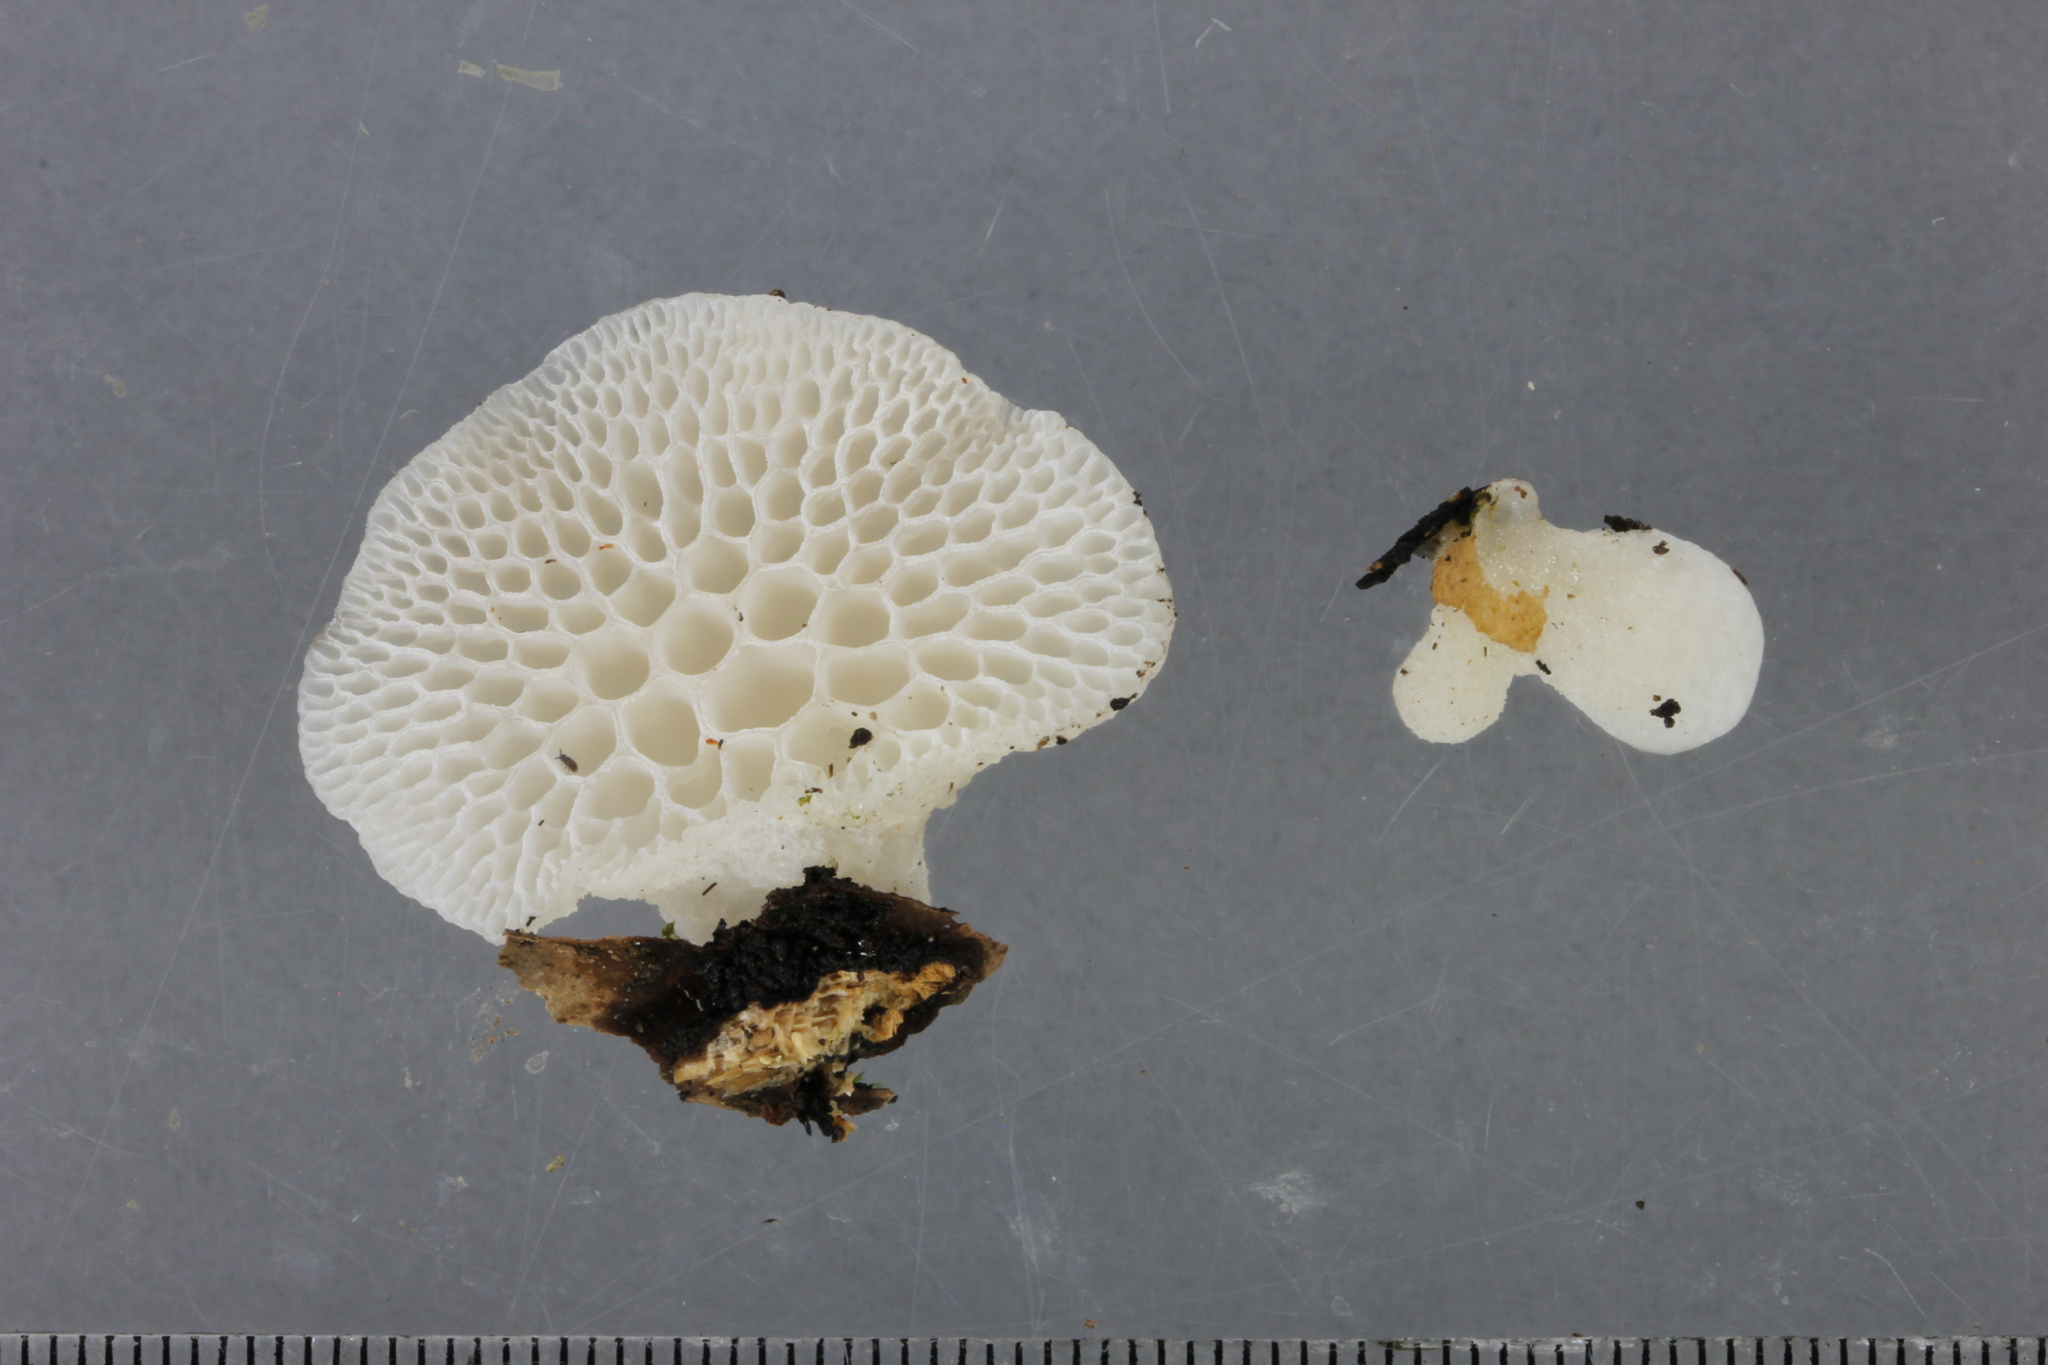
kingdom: Fungi
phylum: Basidiomycota
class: Agaricomycetes
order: Agaricales
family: Mycenaceae
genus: Favolaschia
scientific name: Favolaschia pustulosa
